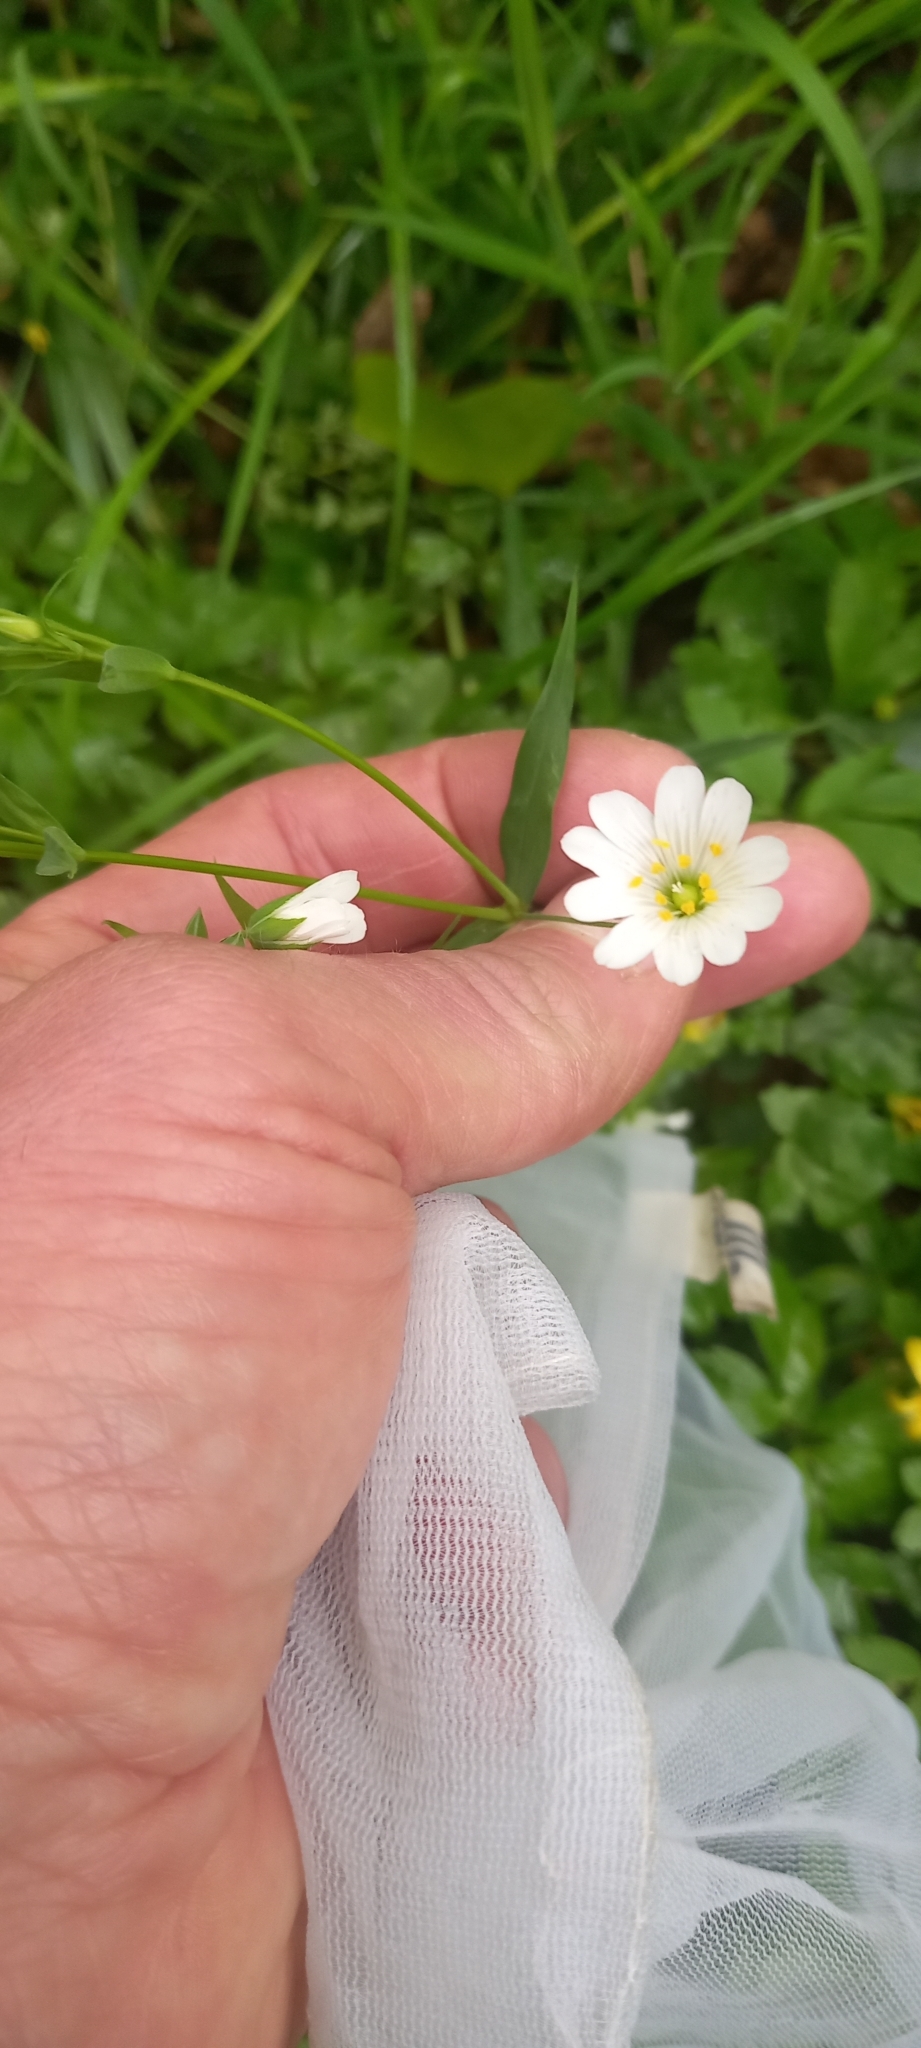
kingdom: Plantae
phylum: Tracheophyta
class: Magnoliopsida
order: Caryophyllales
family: Caryophyllaceae
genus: Rabelera
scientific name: Rabelera holostea
